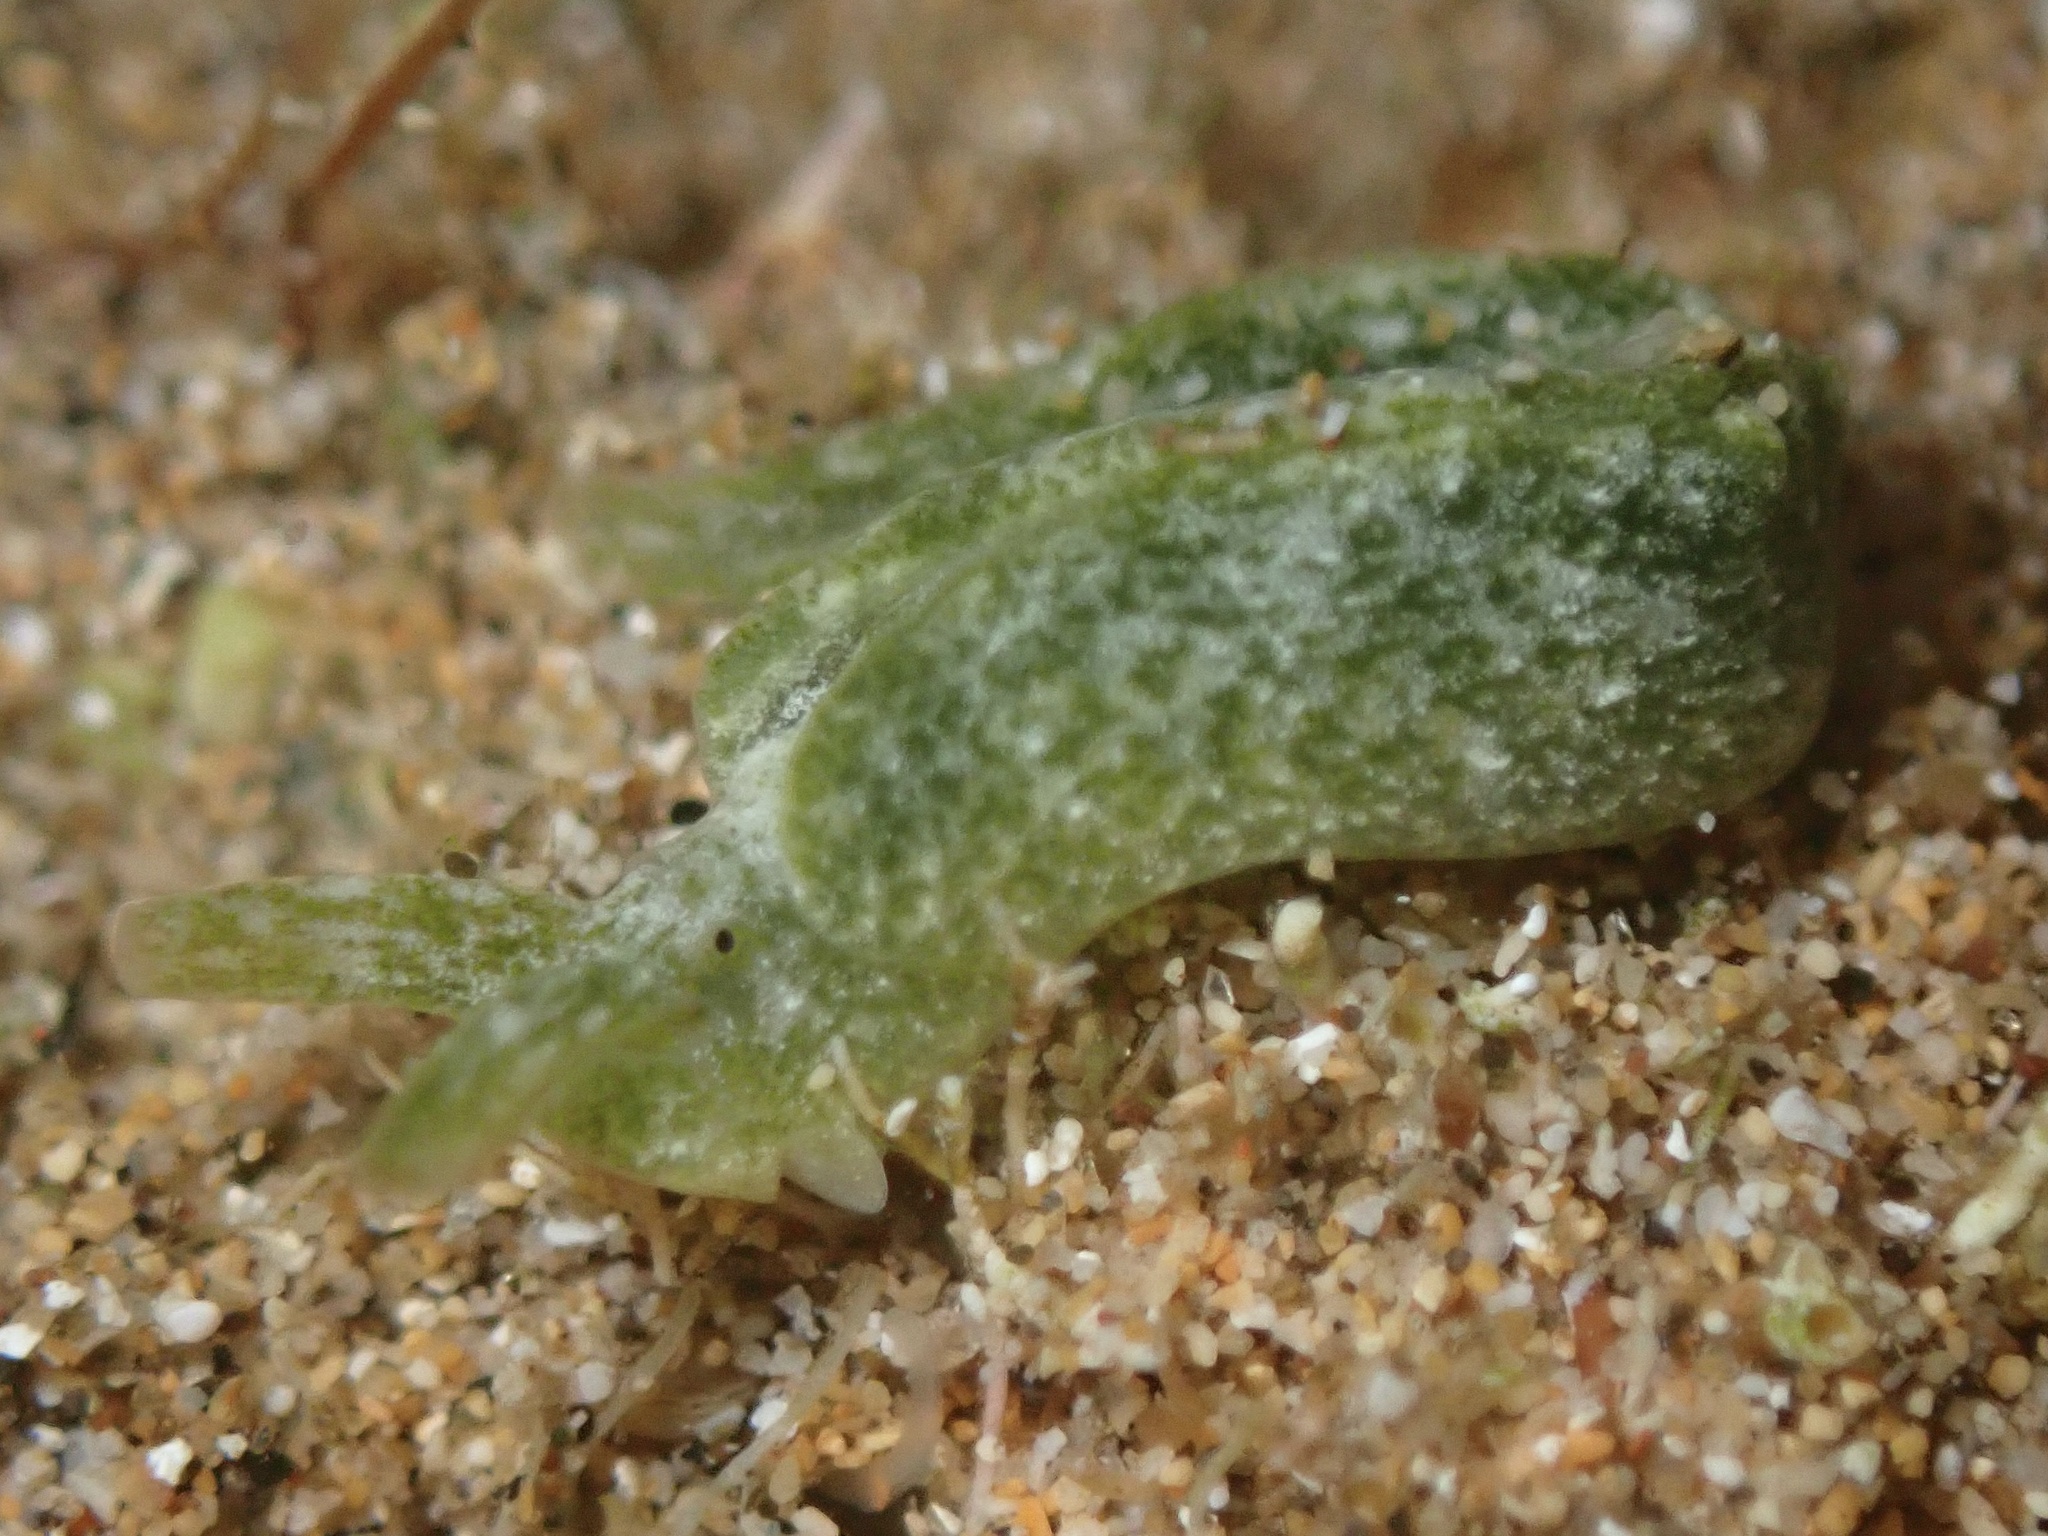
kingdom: Animalia
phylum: Mollusca
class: Gastropoda
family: Plakobranchidae
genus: Elysia
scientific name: Elysia nealae
